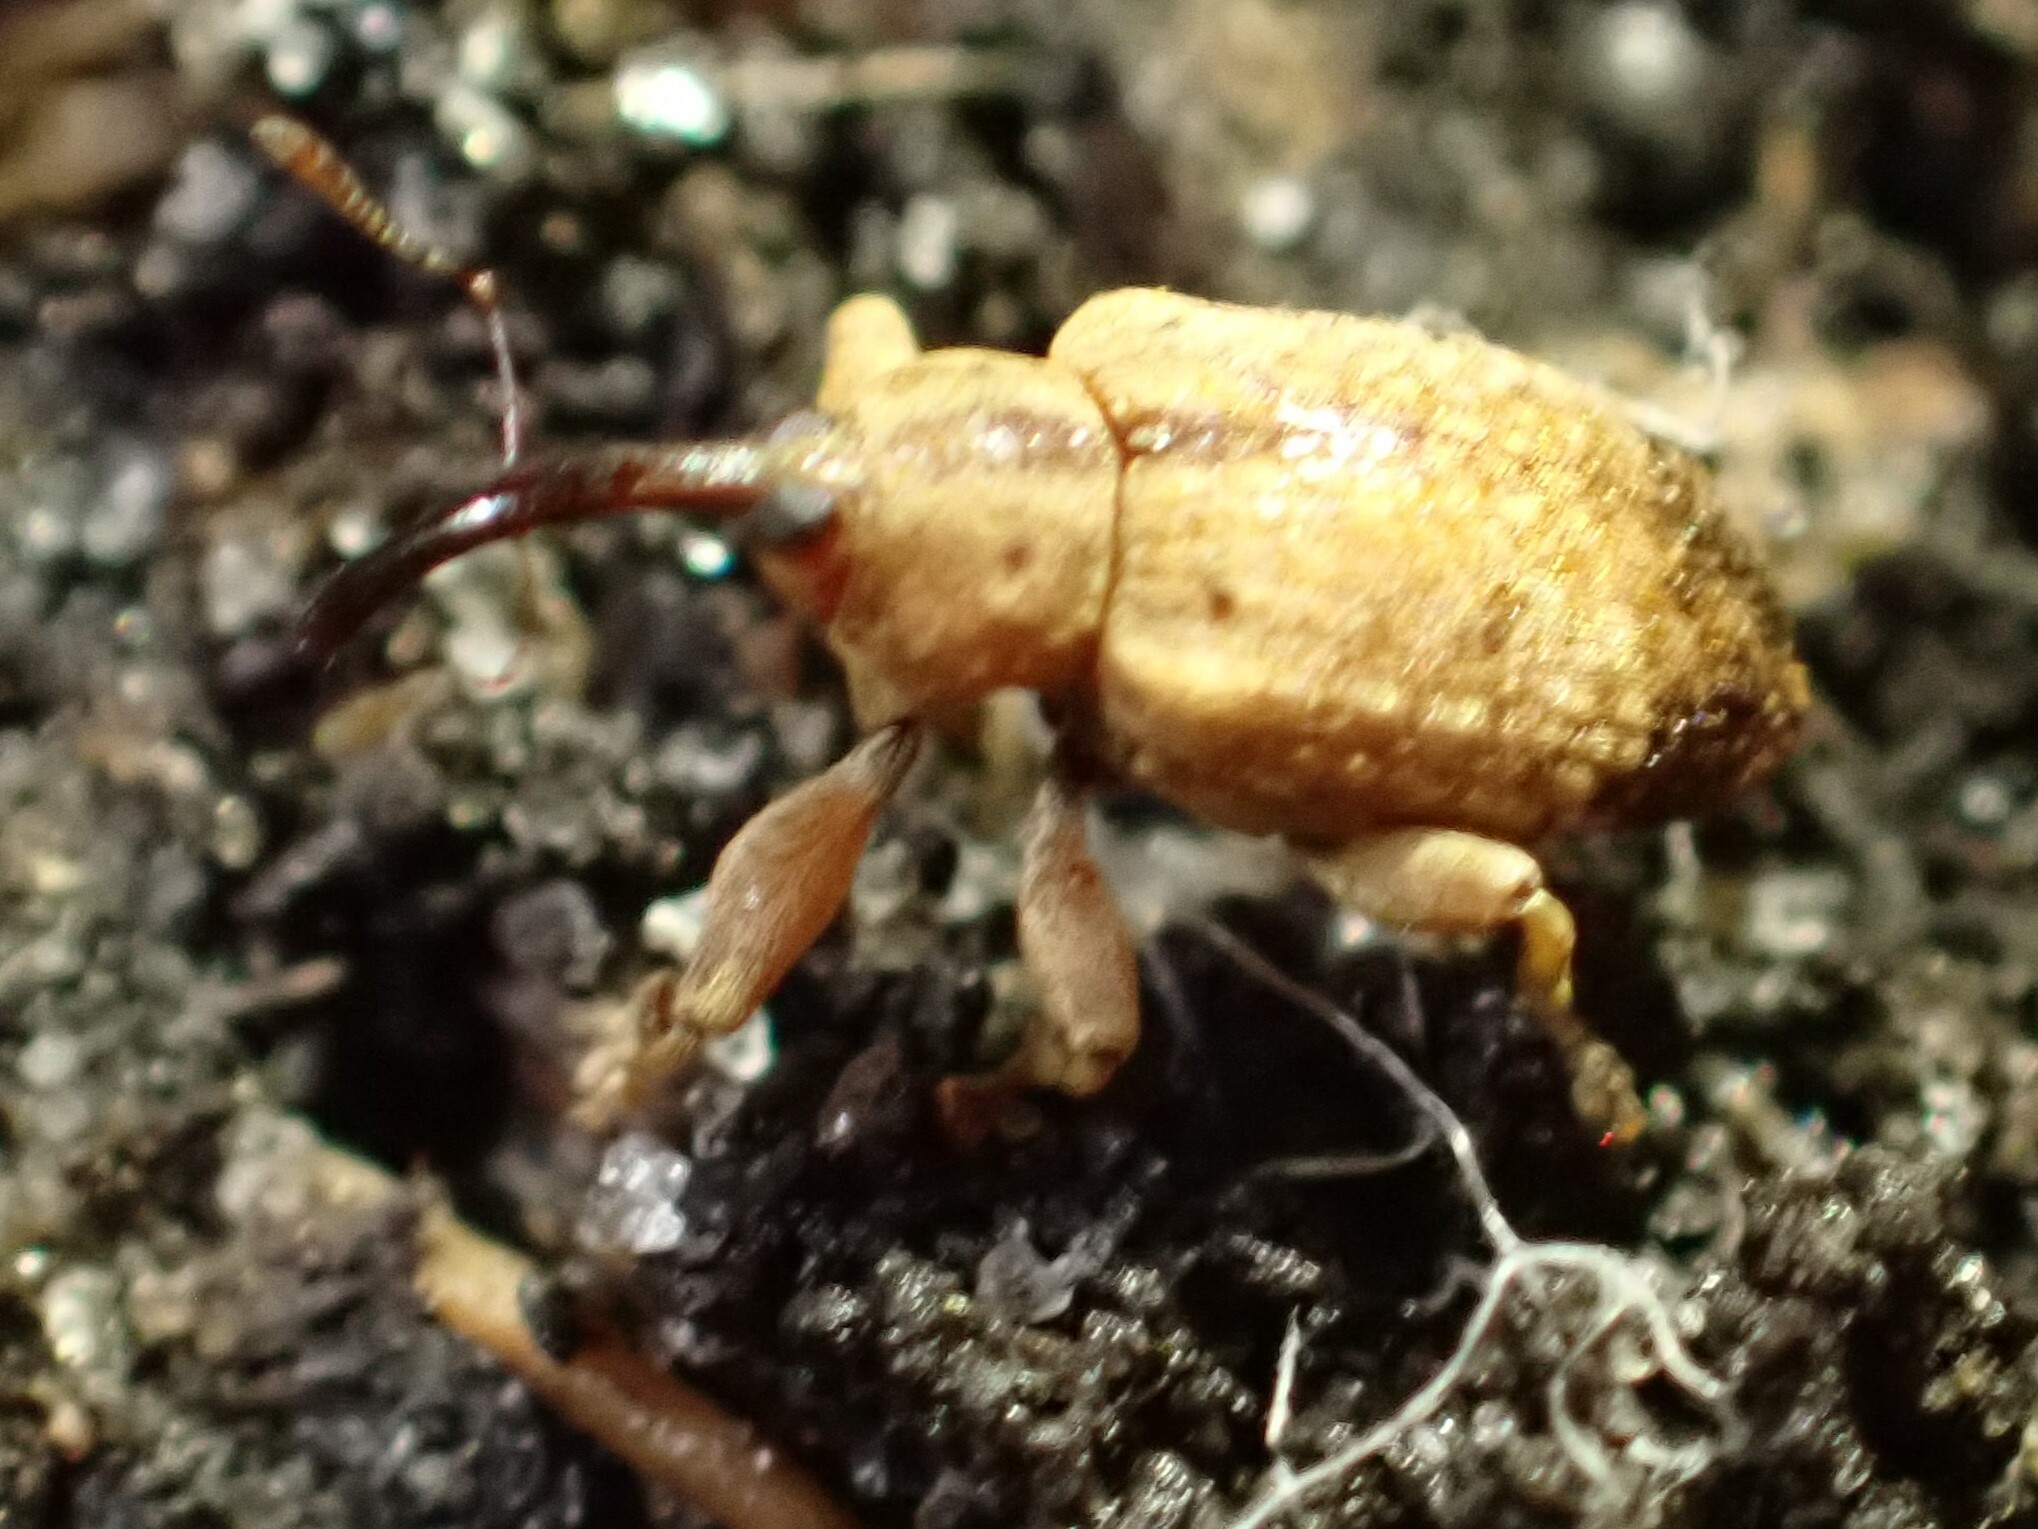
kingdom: Animalia
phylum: Arthropoda
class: Insecta
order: Coleoptera
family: Curculionidae
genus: Ochyromera
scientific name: Ochyromera ligustri
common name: Weevil
